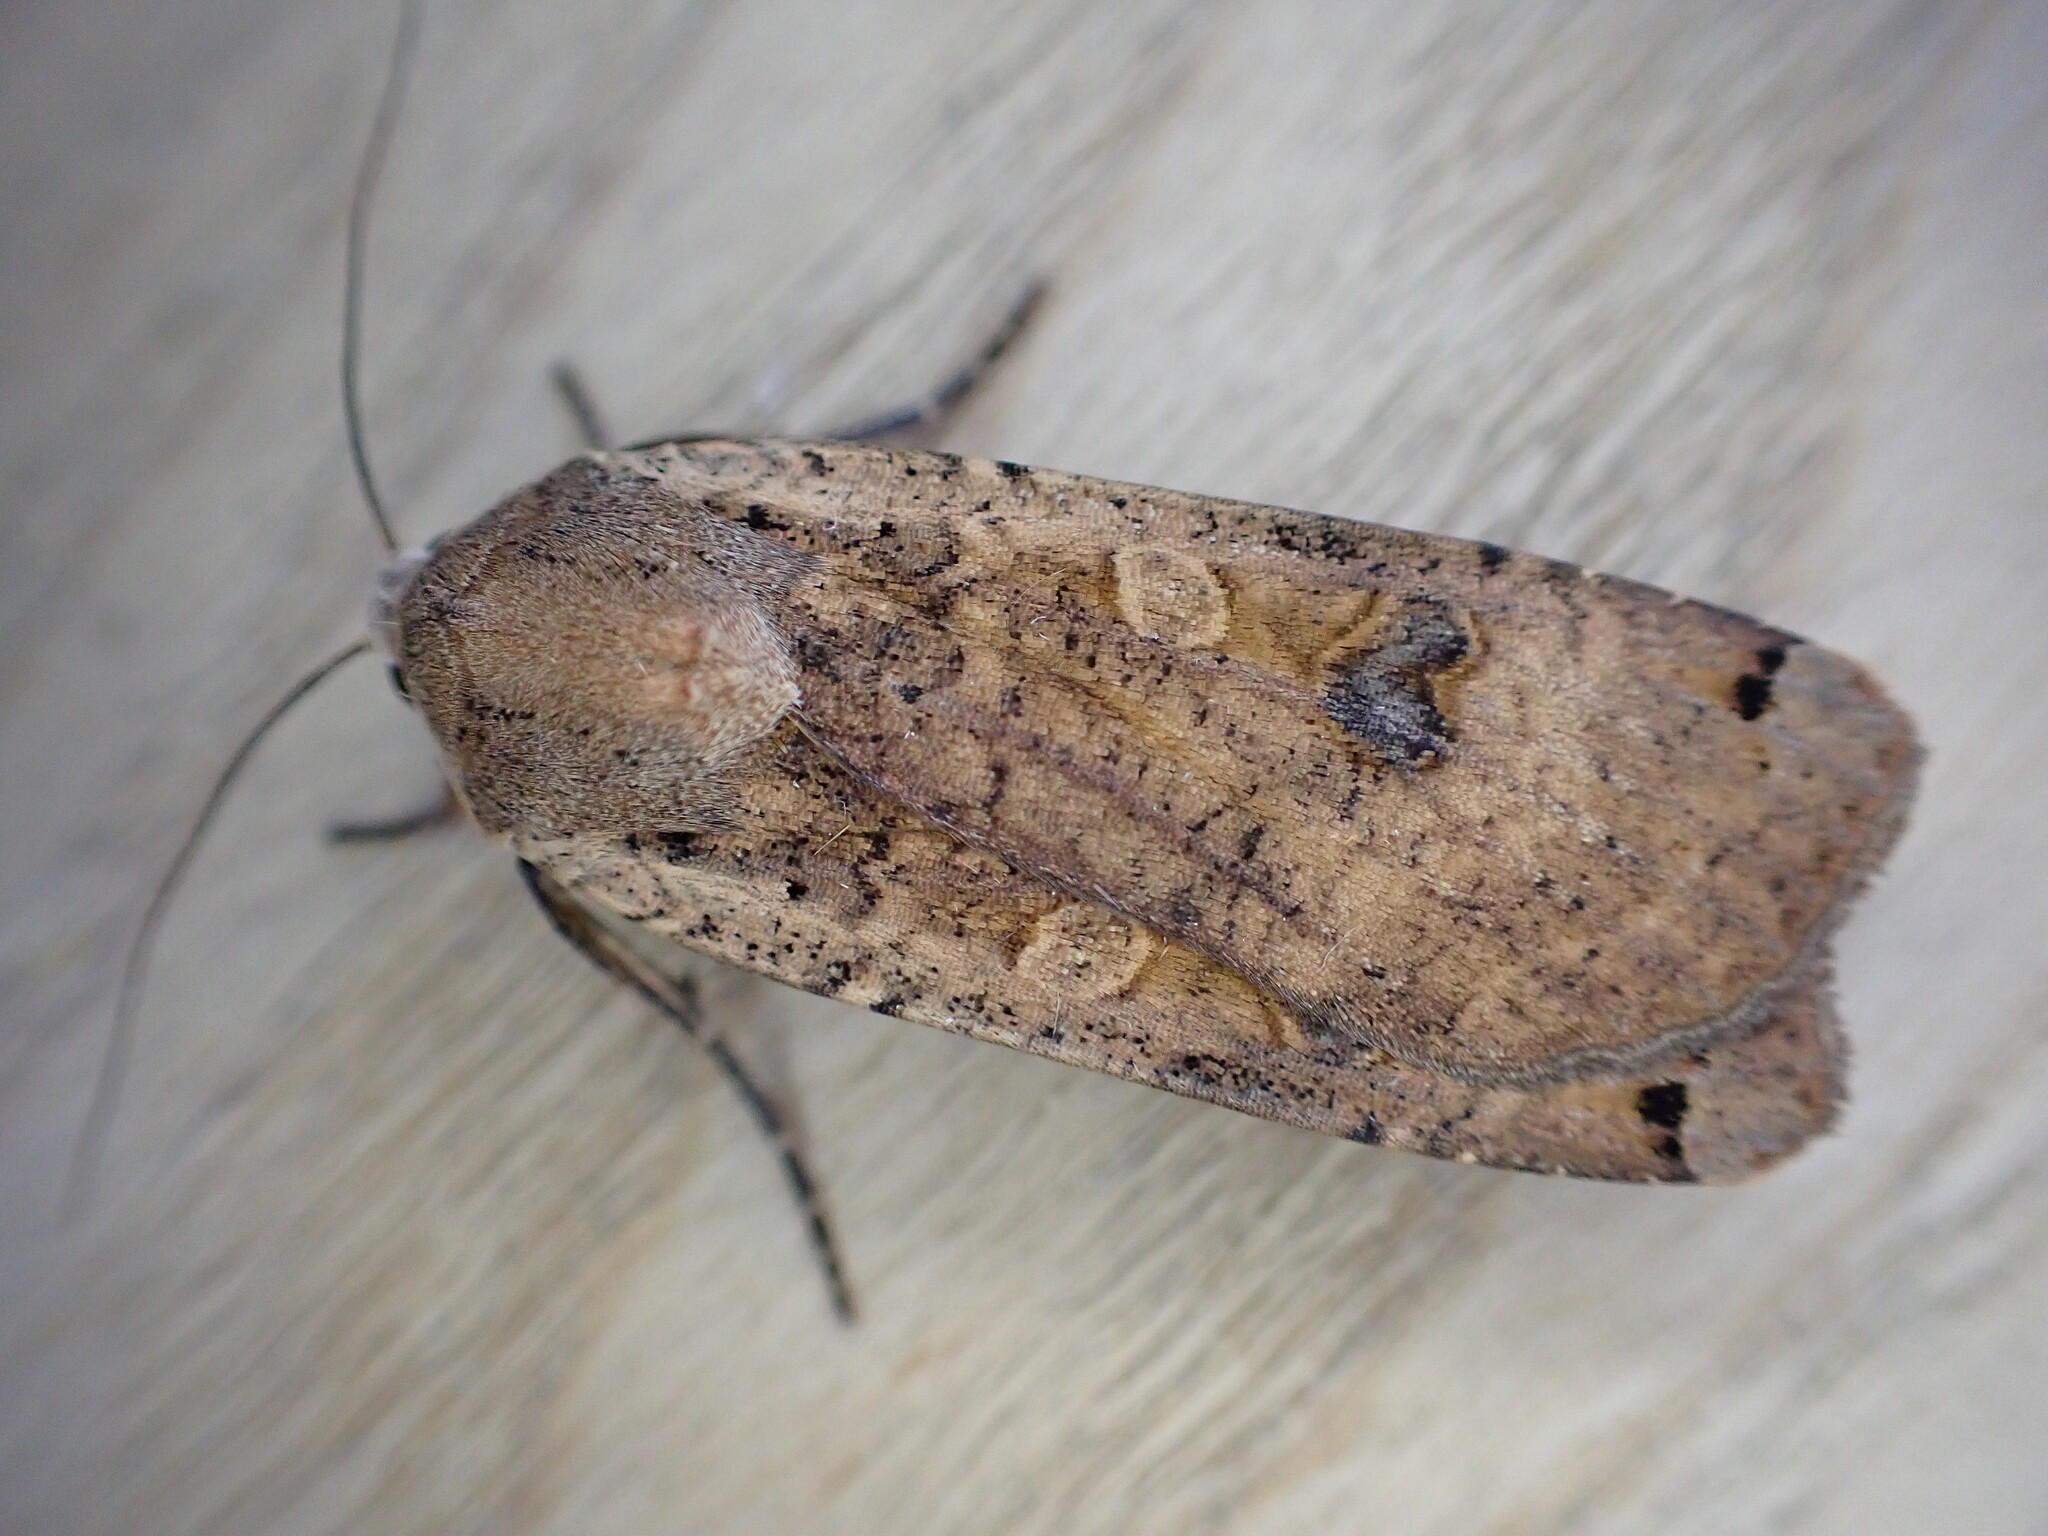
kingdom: Animalia
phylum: Arthropoda
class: Insecta
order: Lepidoptera
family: Noctuidae
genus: Noctua
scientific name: Noctua pronuba
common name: Large yellow underwing
